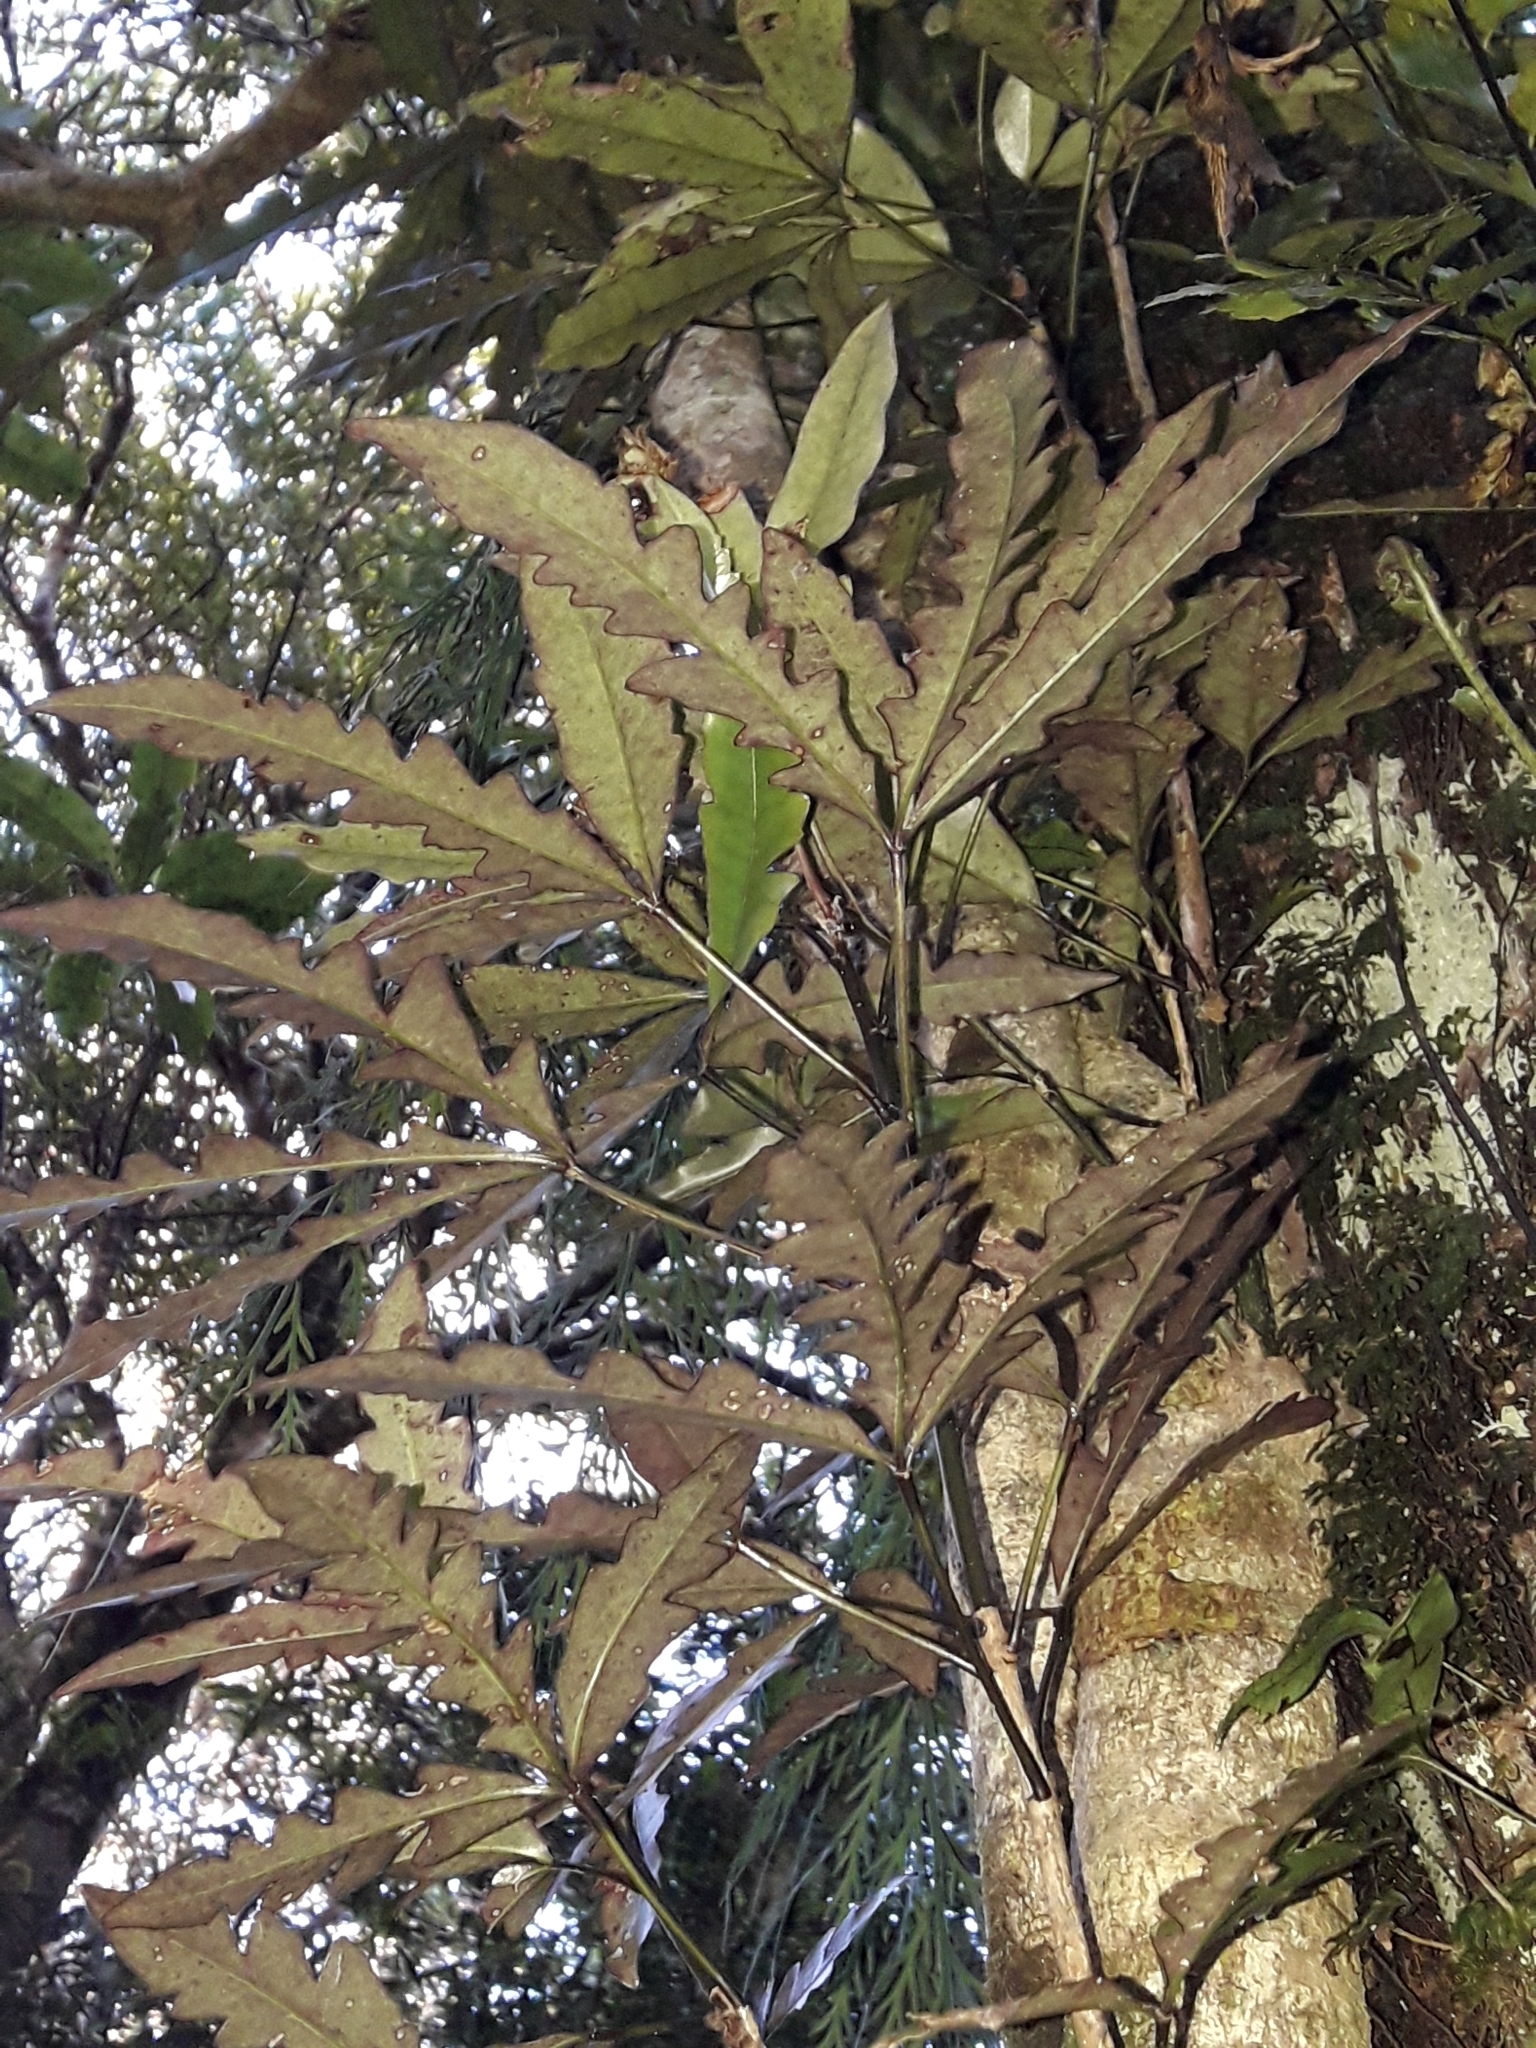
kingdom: Plantae
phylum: Tracheophyta
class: Magnoliopsida
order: Apiales
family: Araliaceae
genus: Raukaua
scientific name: Raukaua edgerleyi
